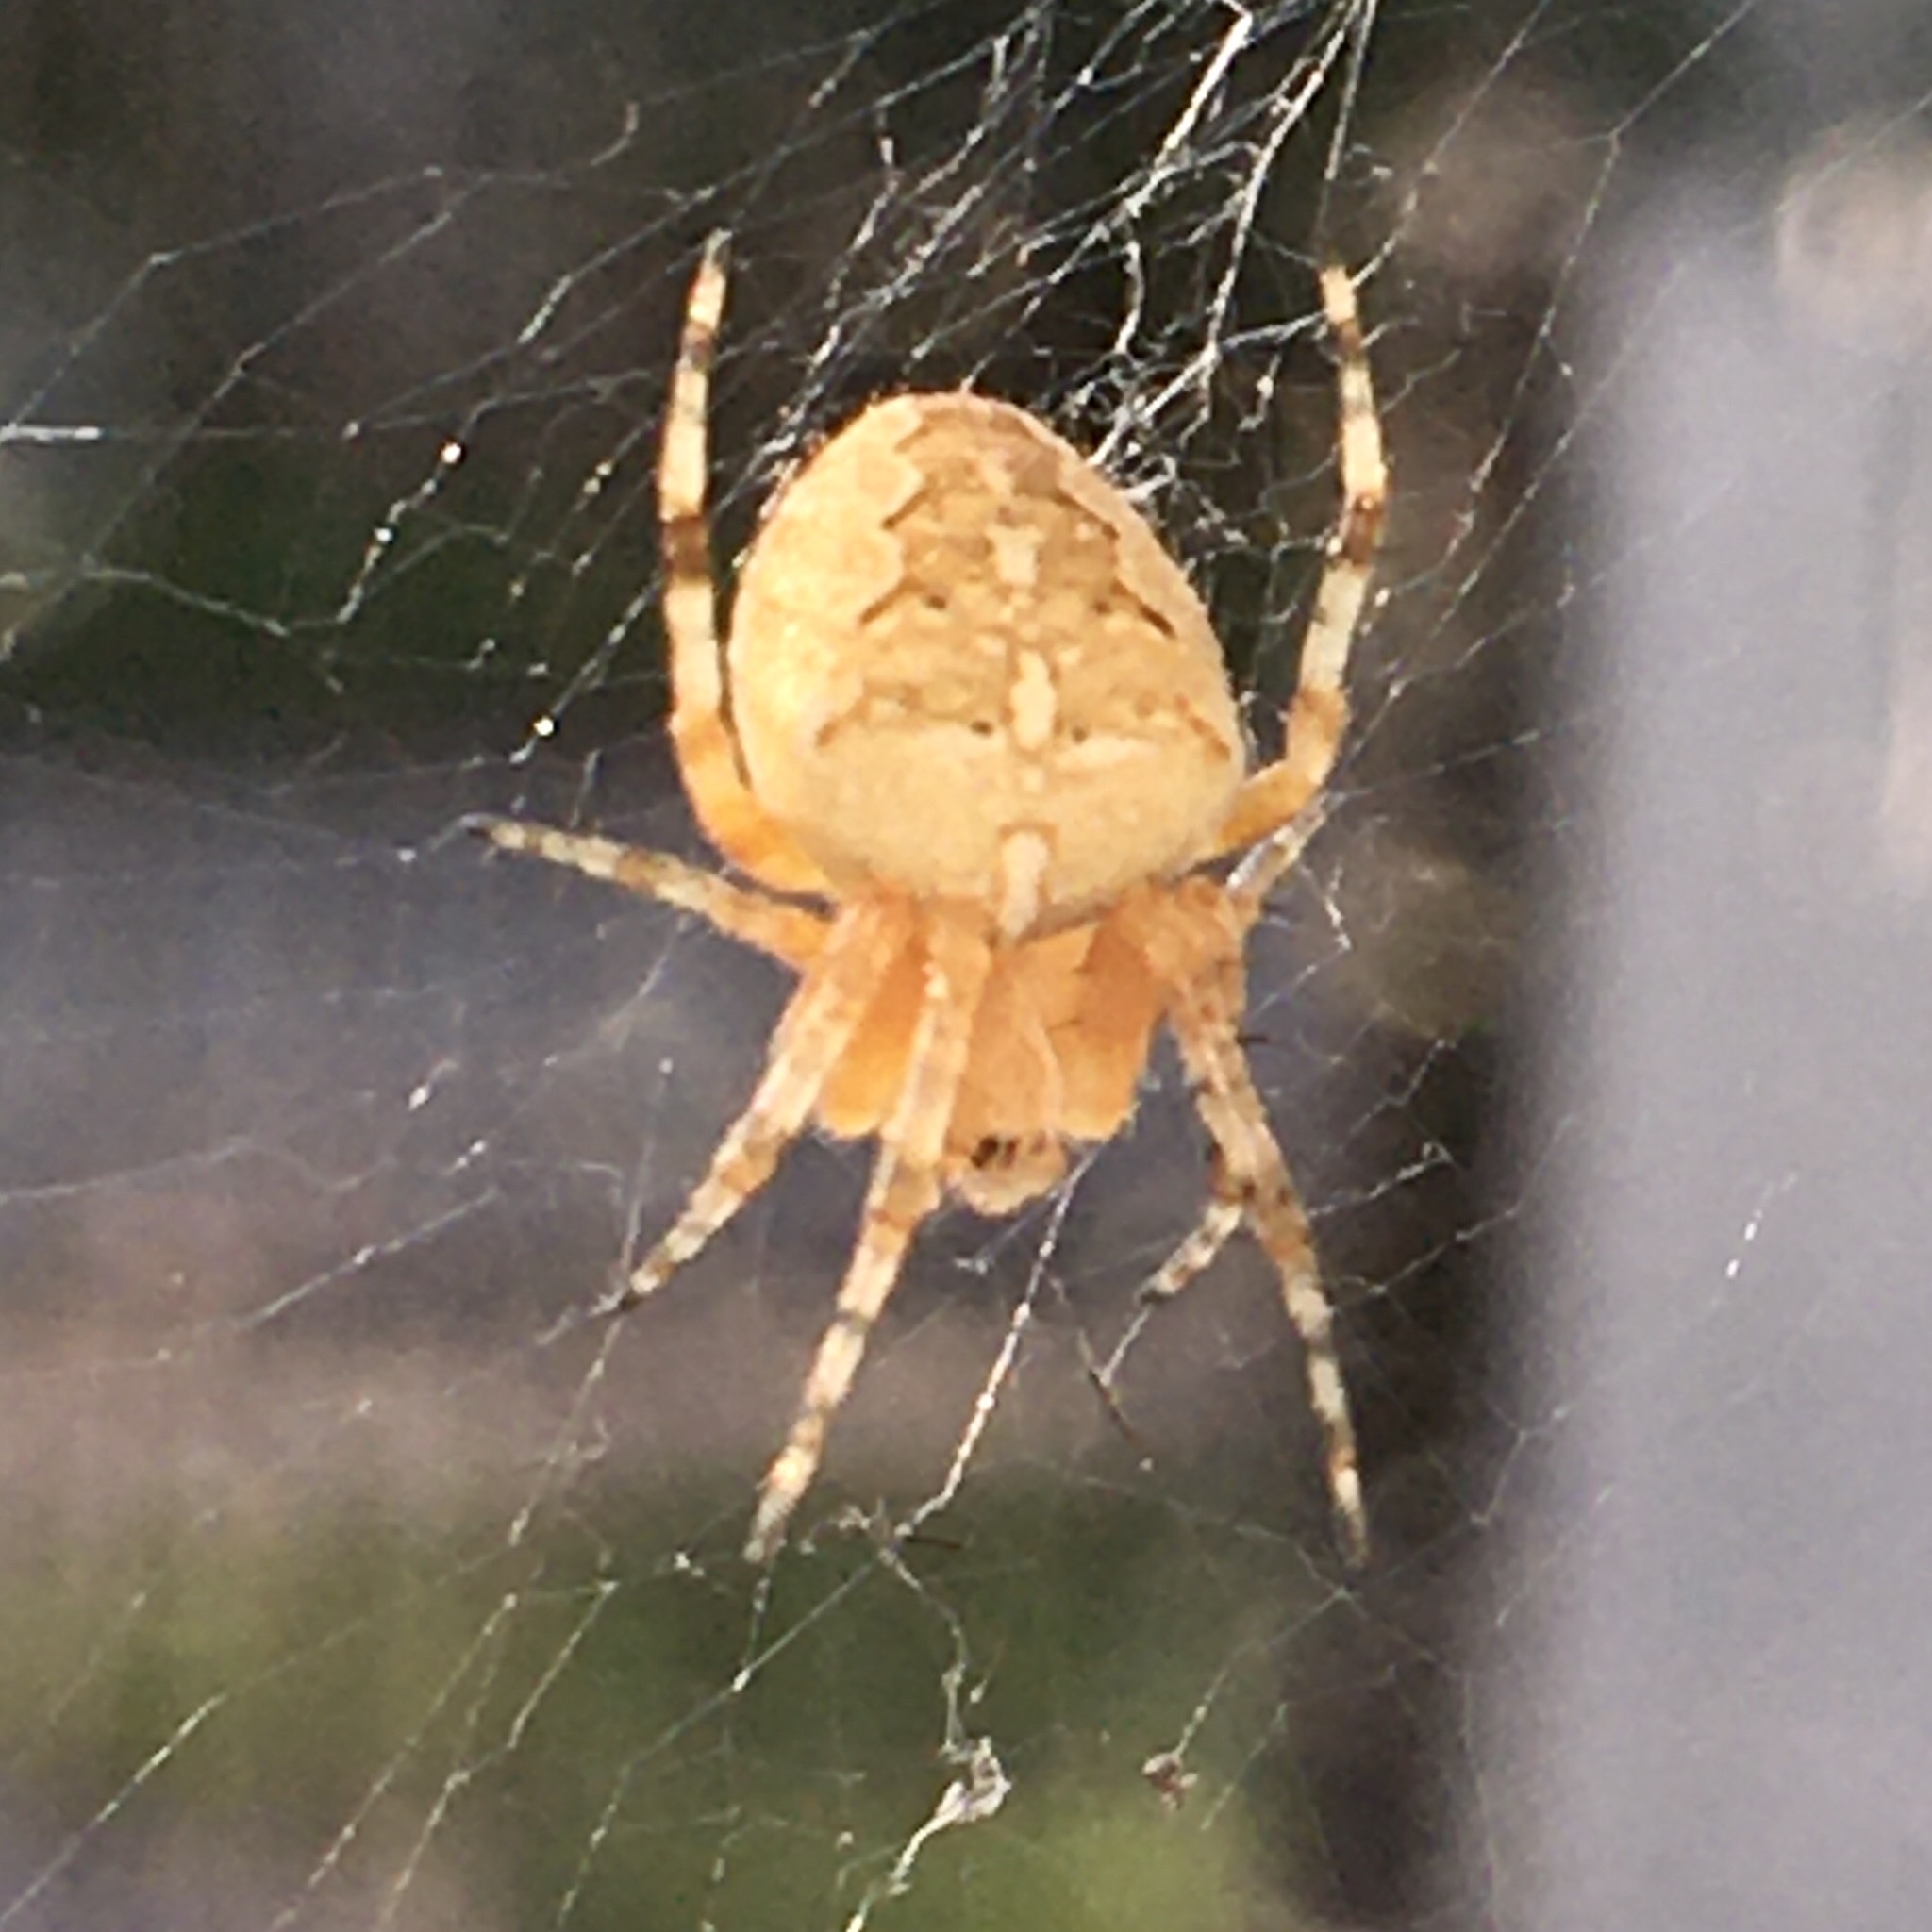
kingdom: Animalia
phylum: Arthropoda
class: Arachnida
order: Araneae
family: Araneidae
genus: Araneus
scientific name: Araneus diadematus
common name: Cross orbweaver
